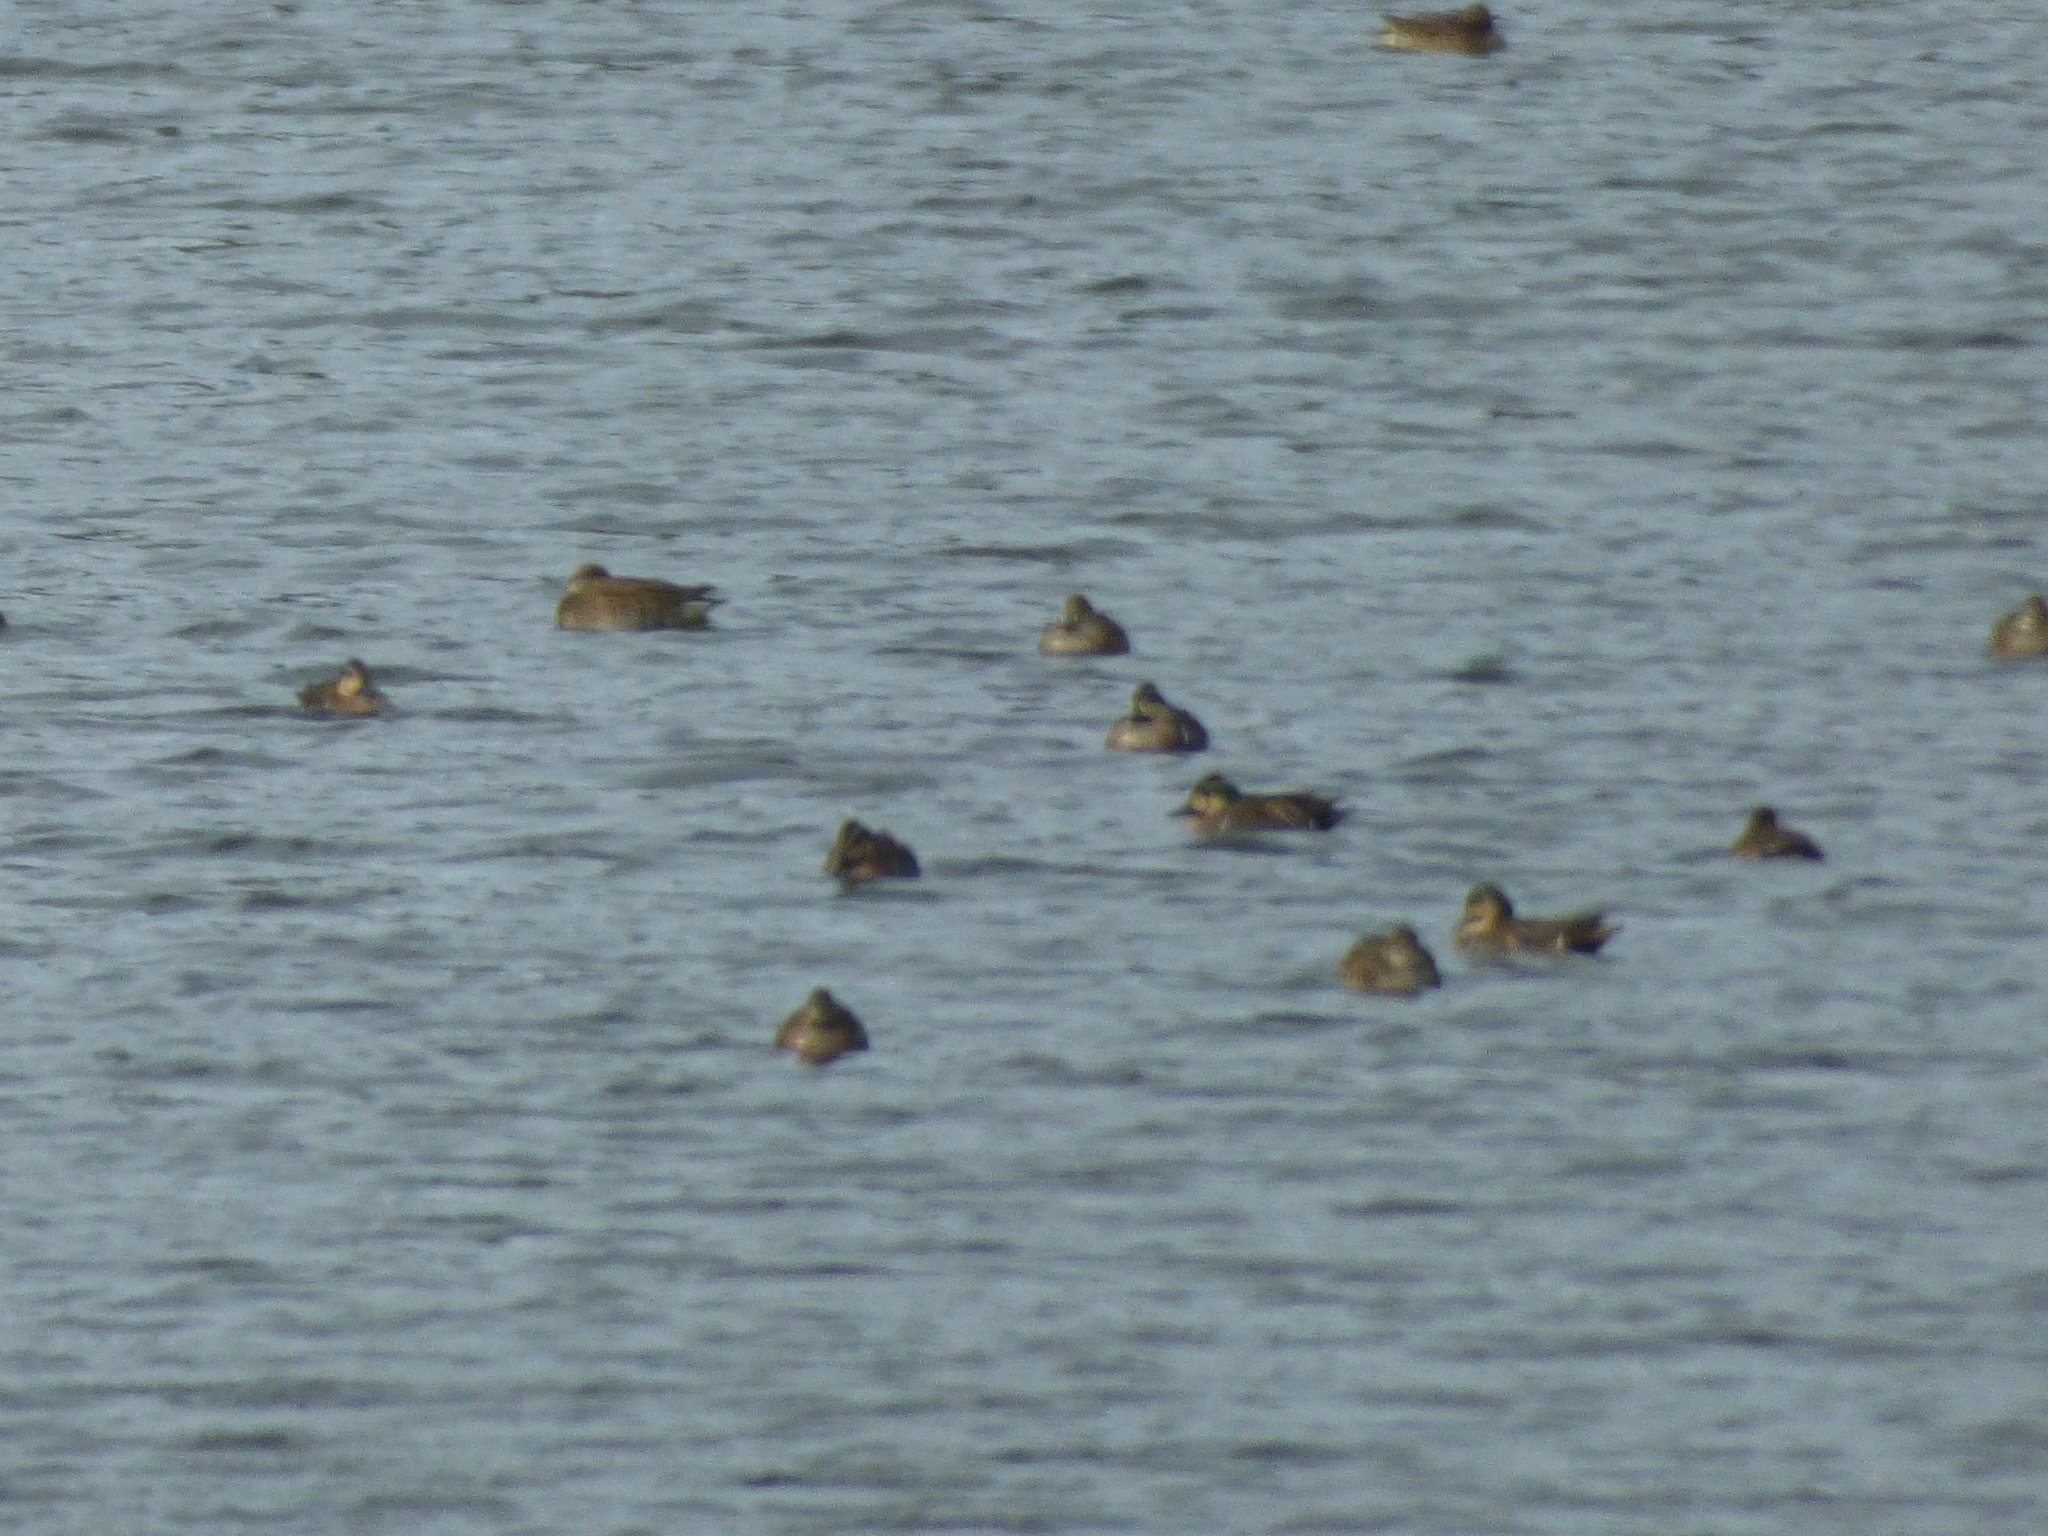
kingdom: Animalia
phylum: Chordata
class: Aves
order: Anseriformes
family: Anatidae
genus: Sibirionetta
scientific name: Sibirionetta formosa
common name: Baikal teal
